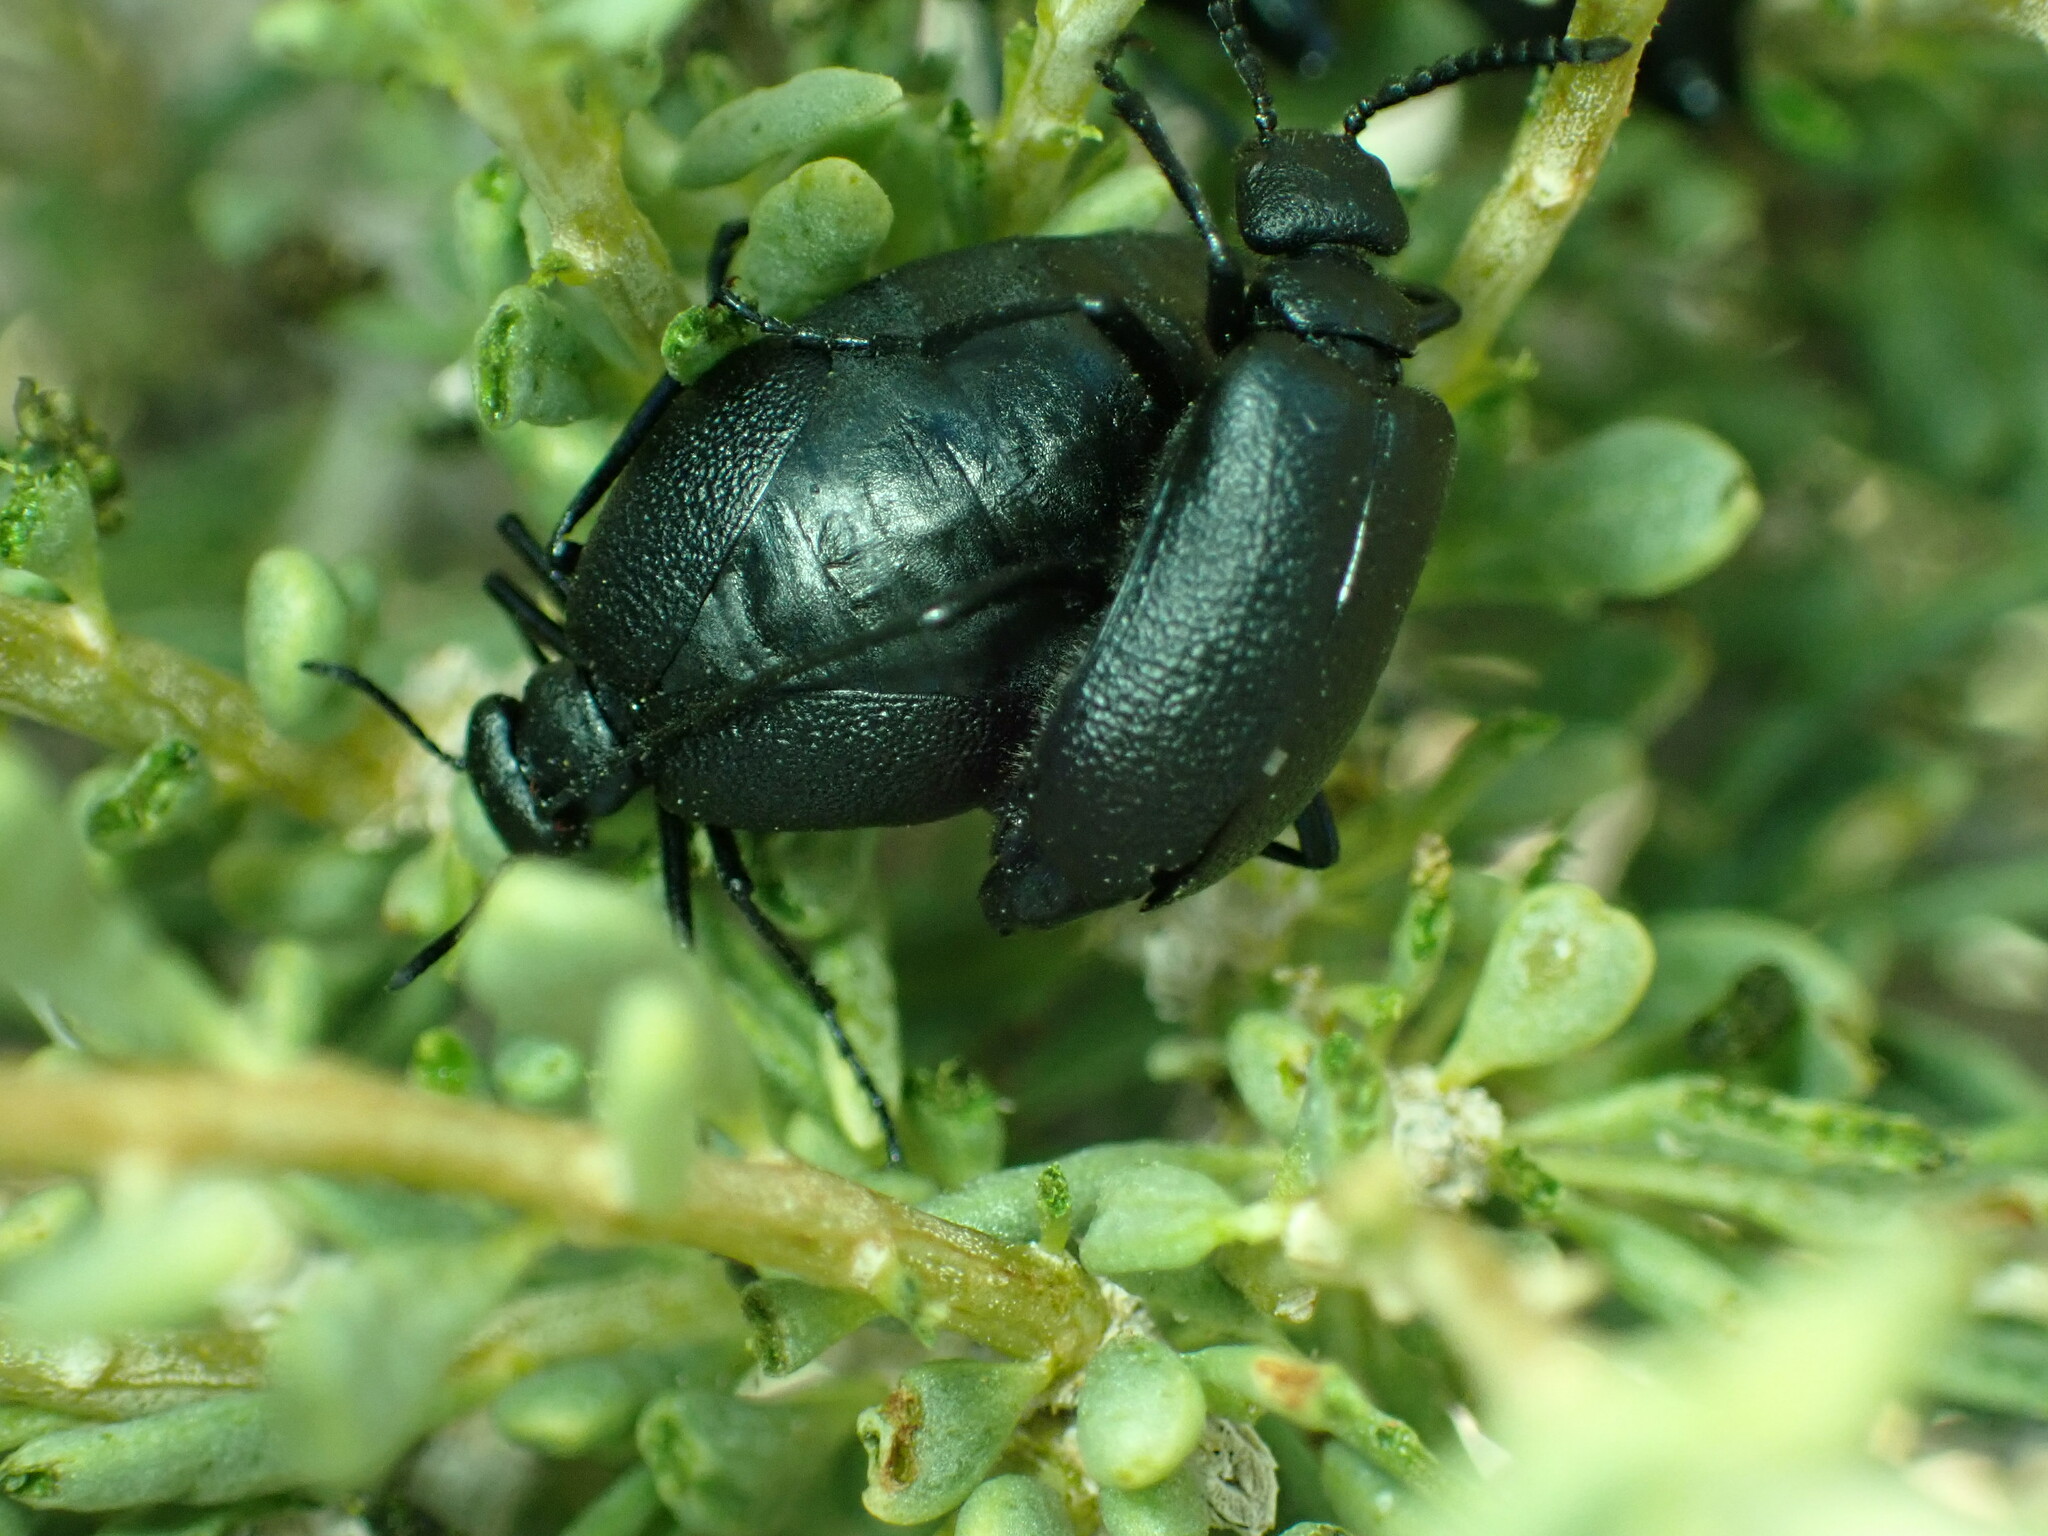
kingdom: Animalia
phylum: Arthropoda
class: Insecta
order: Coleoptera
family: Meloidae
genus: Cordylospasta
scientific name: Cordylospasta opaca
